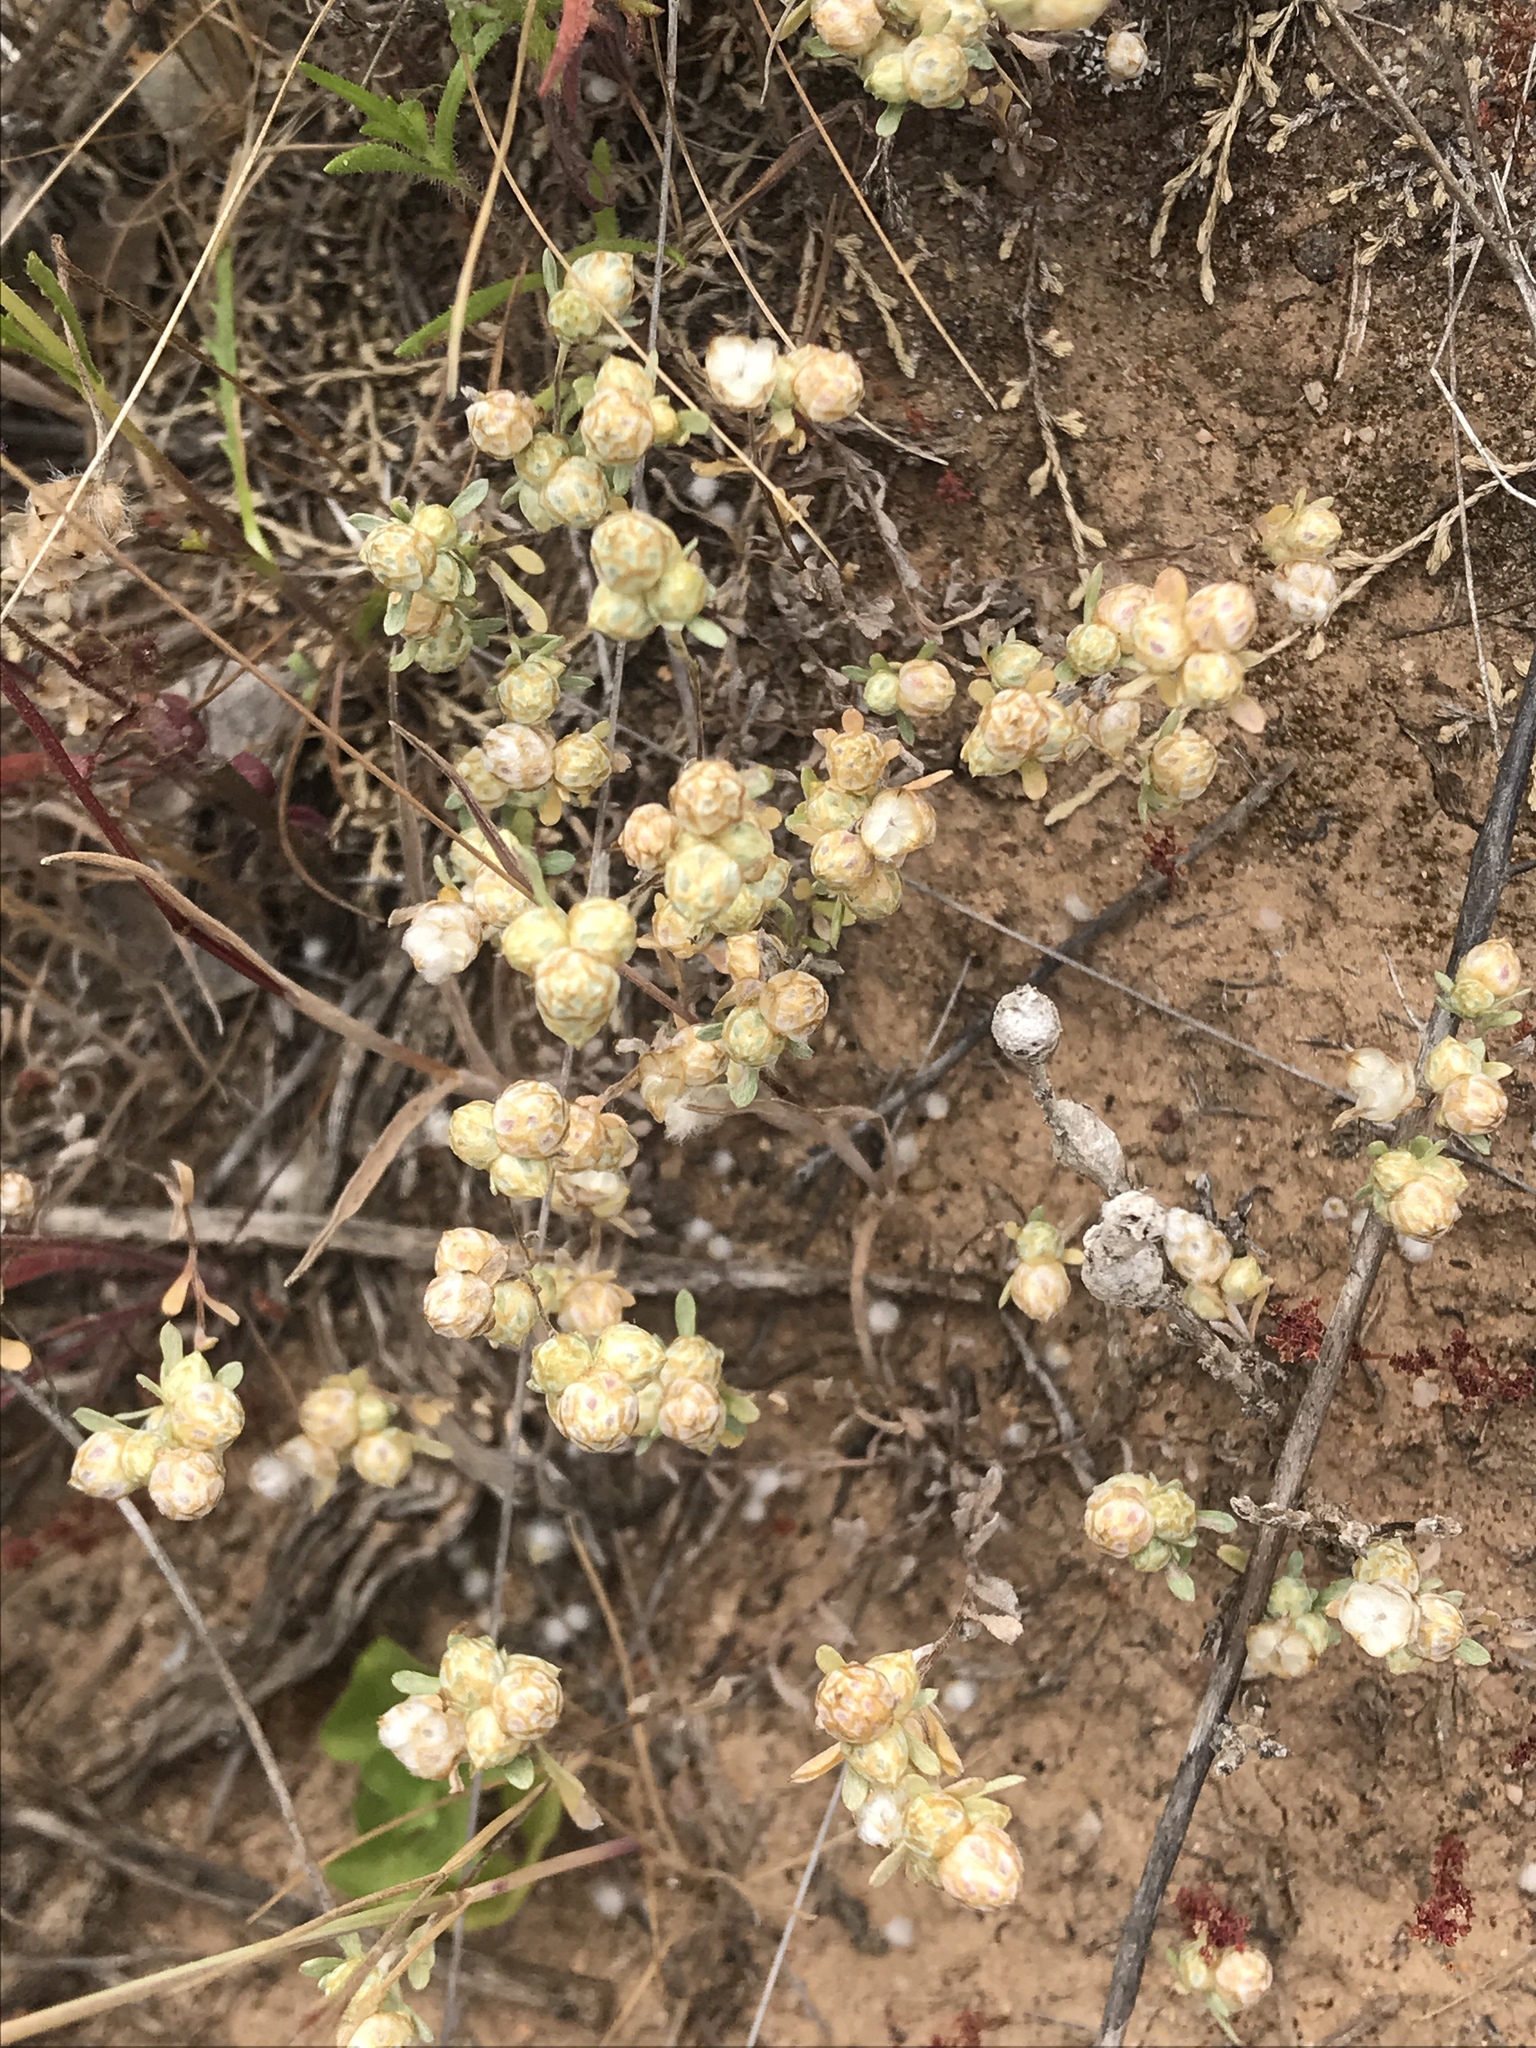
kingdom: Plantae
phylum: Tracheophyta
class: Magnoliopsida
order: Asterales
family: Asteraceae
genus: Stylocline
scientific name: Stylocline gnaphaloides
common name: Everlasting nest-straw
